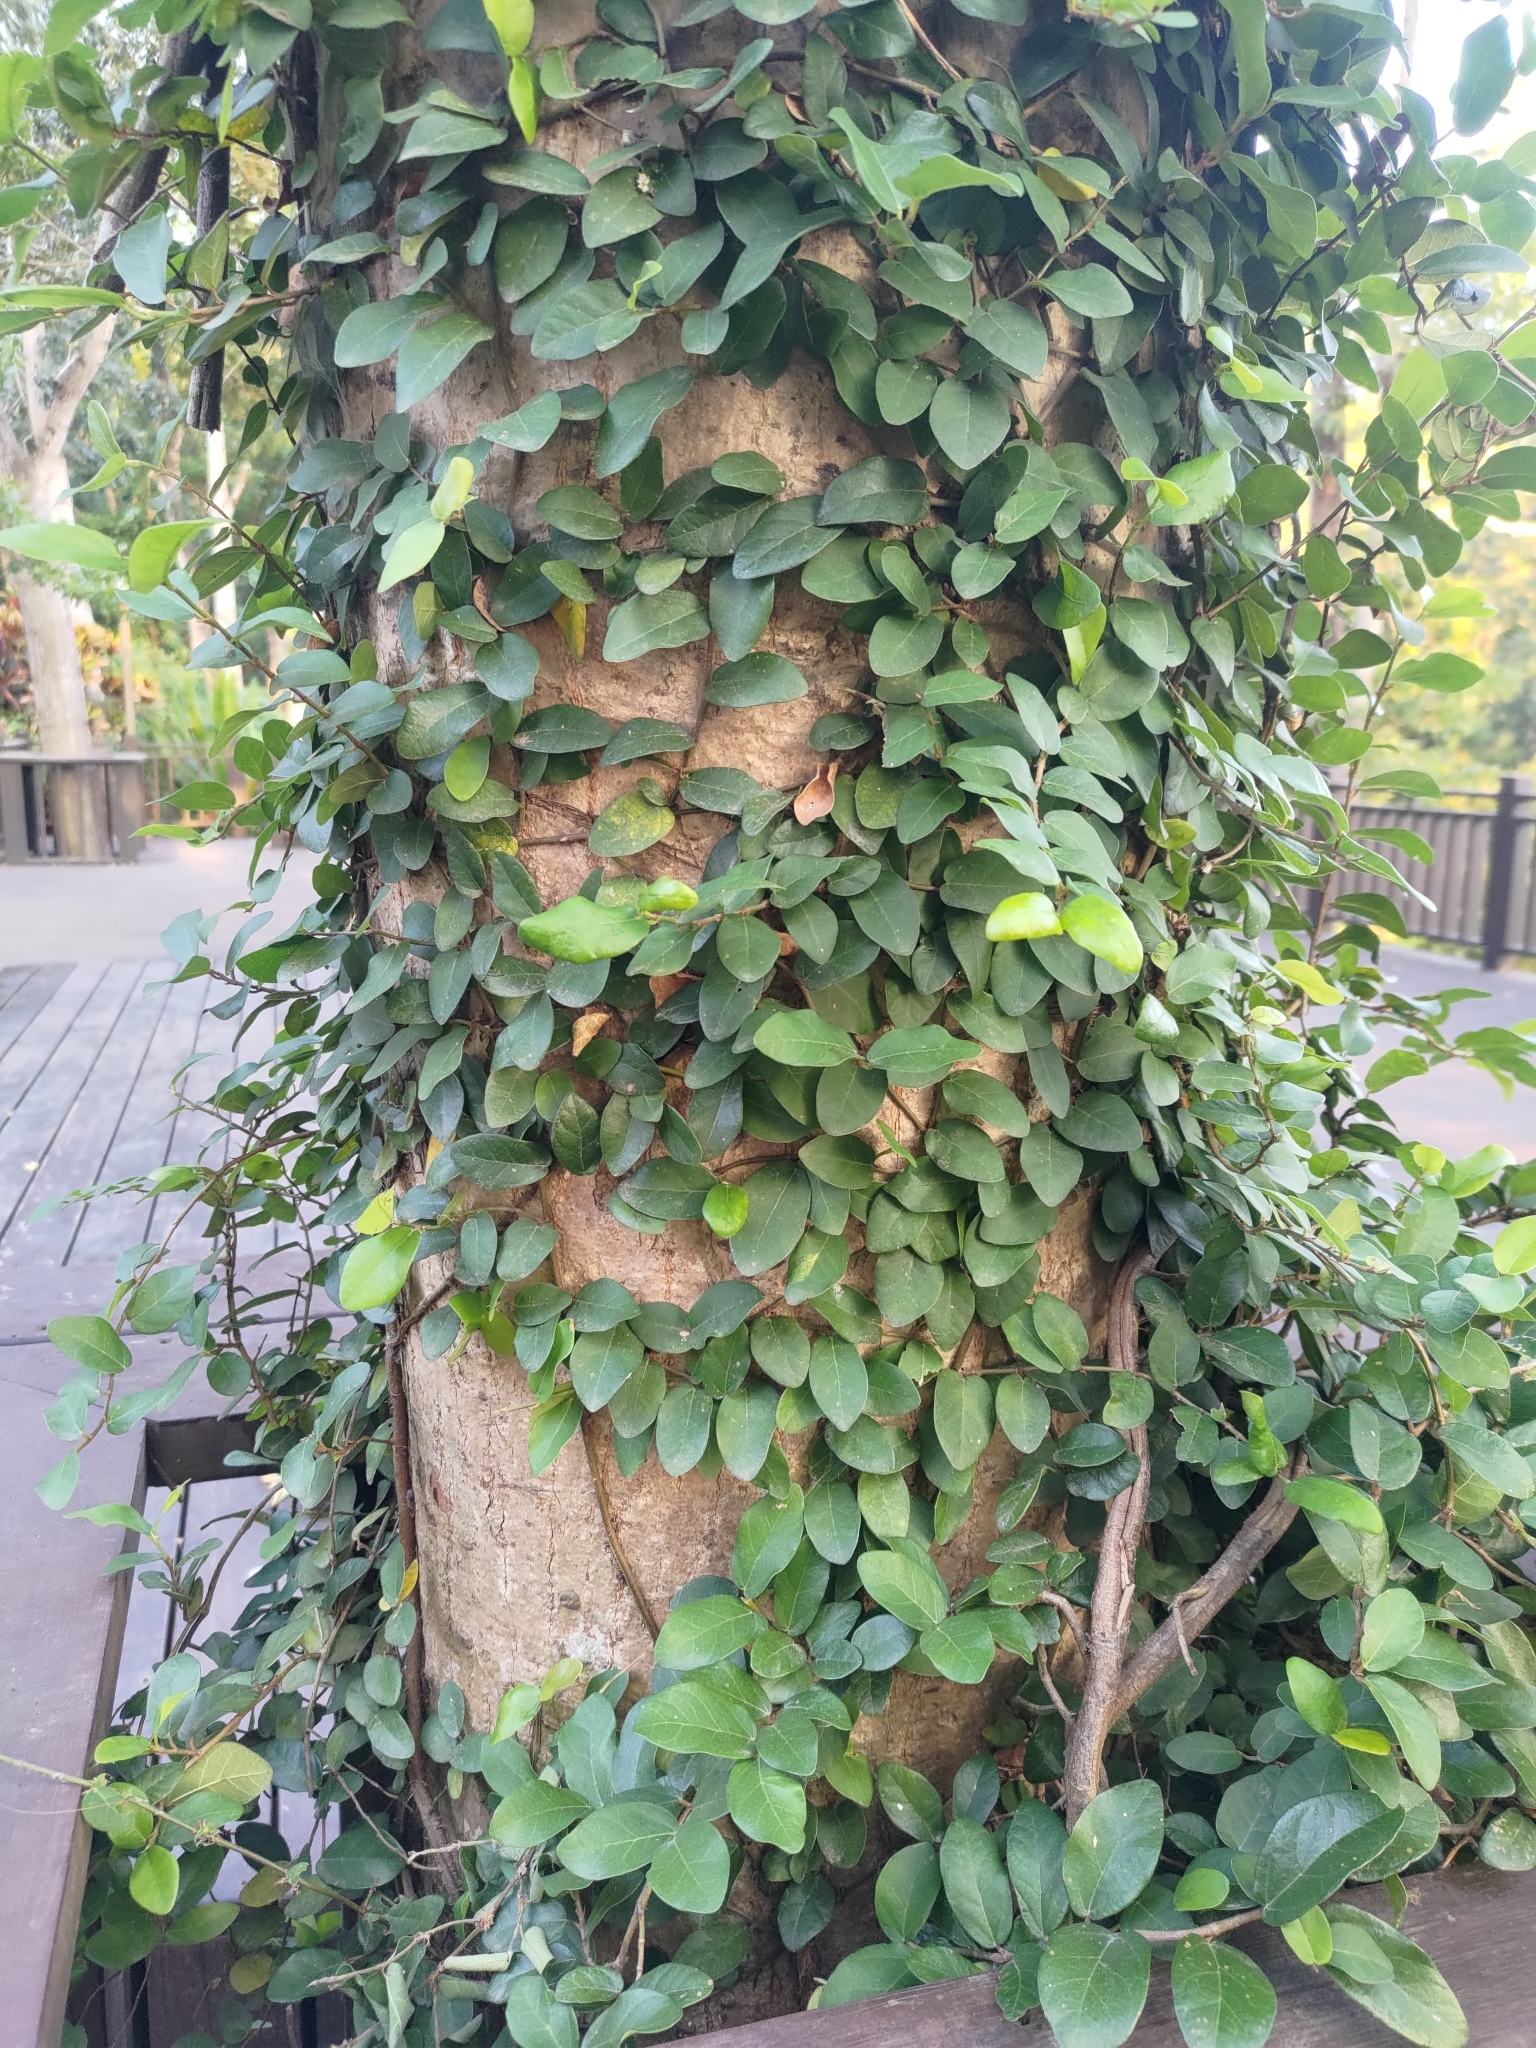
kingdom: Plantae
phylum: Tracheophyta
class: Magnoliopsida
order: Rosales
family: Moraceae
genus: Ficus
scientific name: Ficus pumila
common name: Climbingfig
